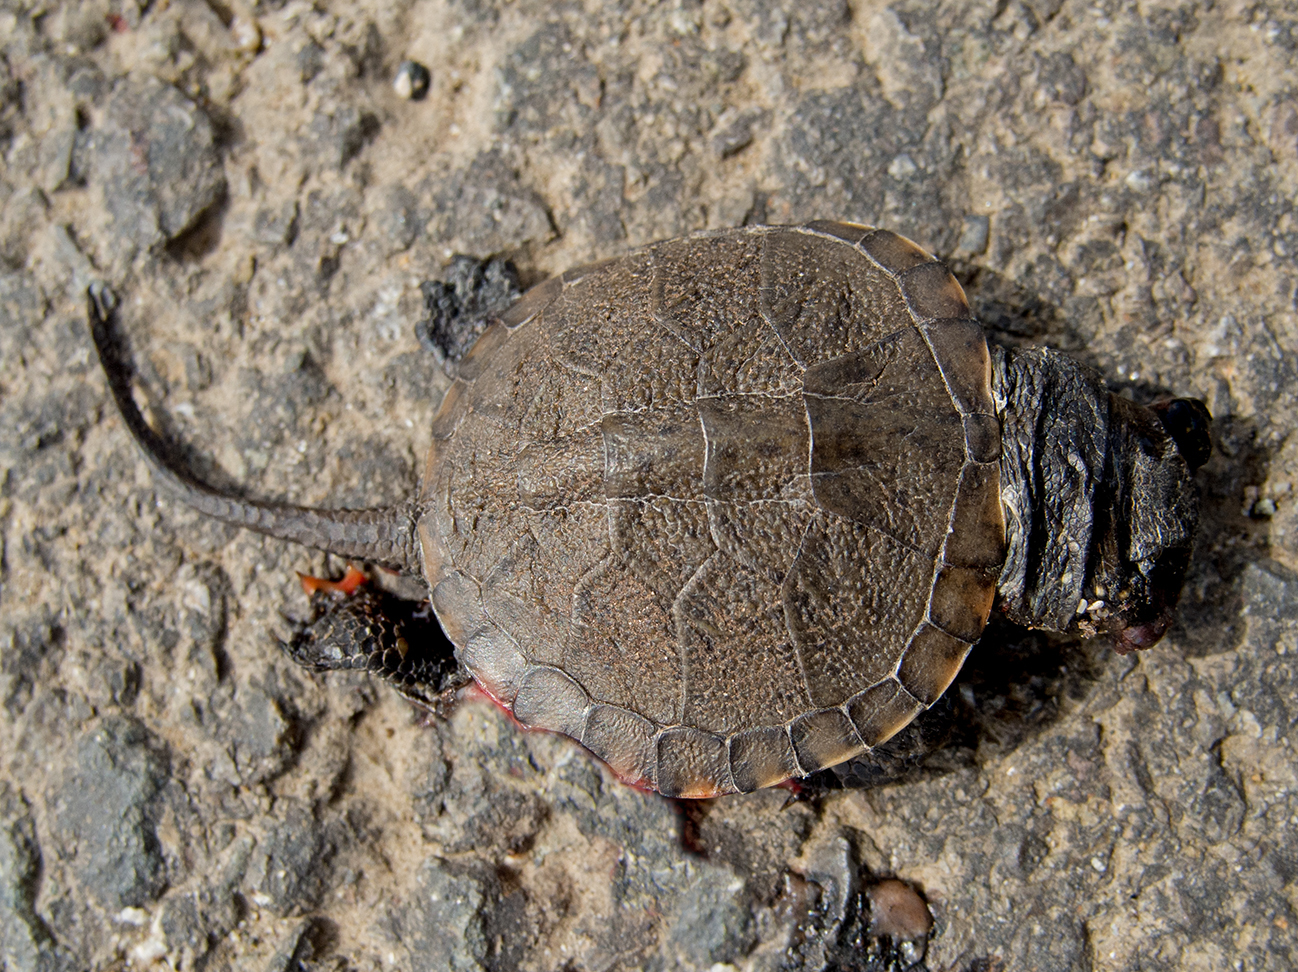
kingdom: Animalia
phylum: Chordata
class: Testudines
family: Emydidae
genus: Emys
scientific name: Emys orbicularis
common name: European pond turtle
